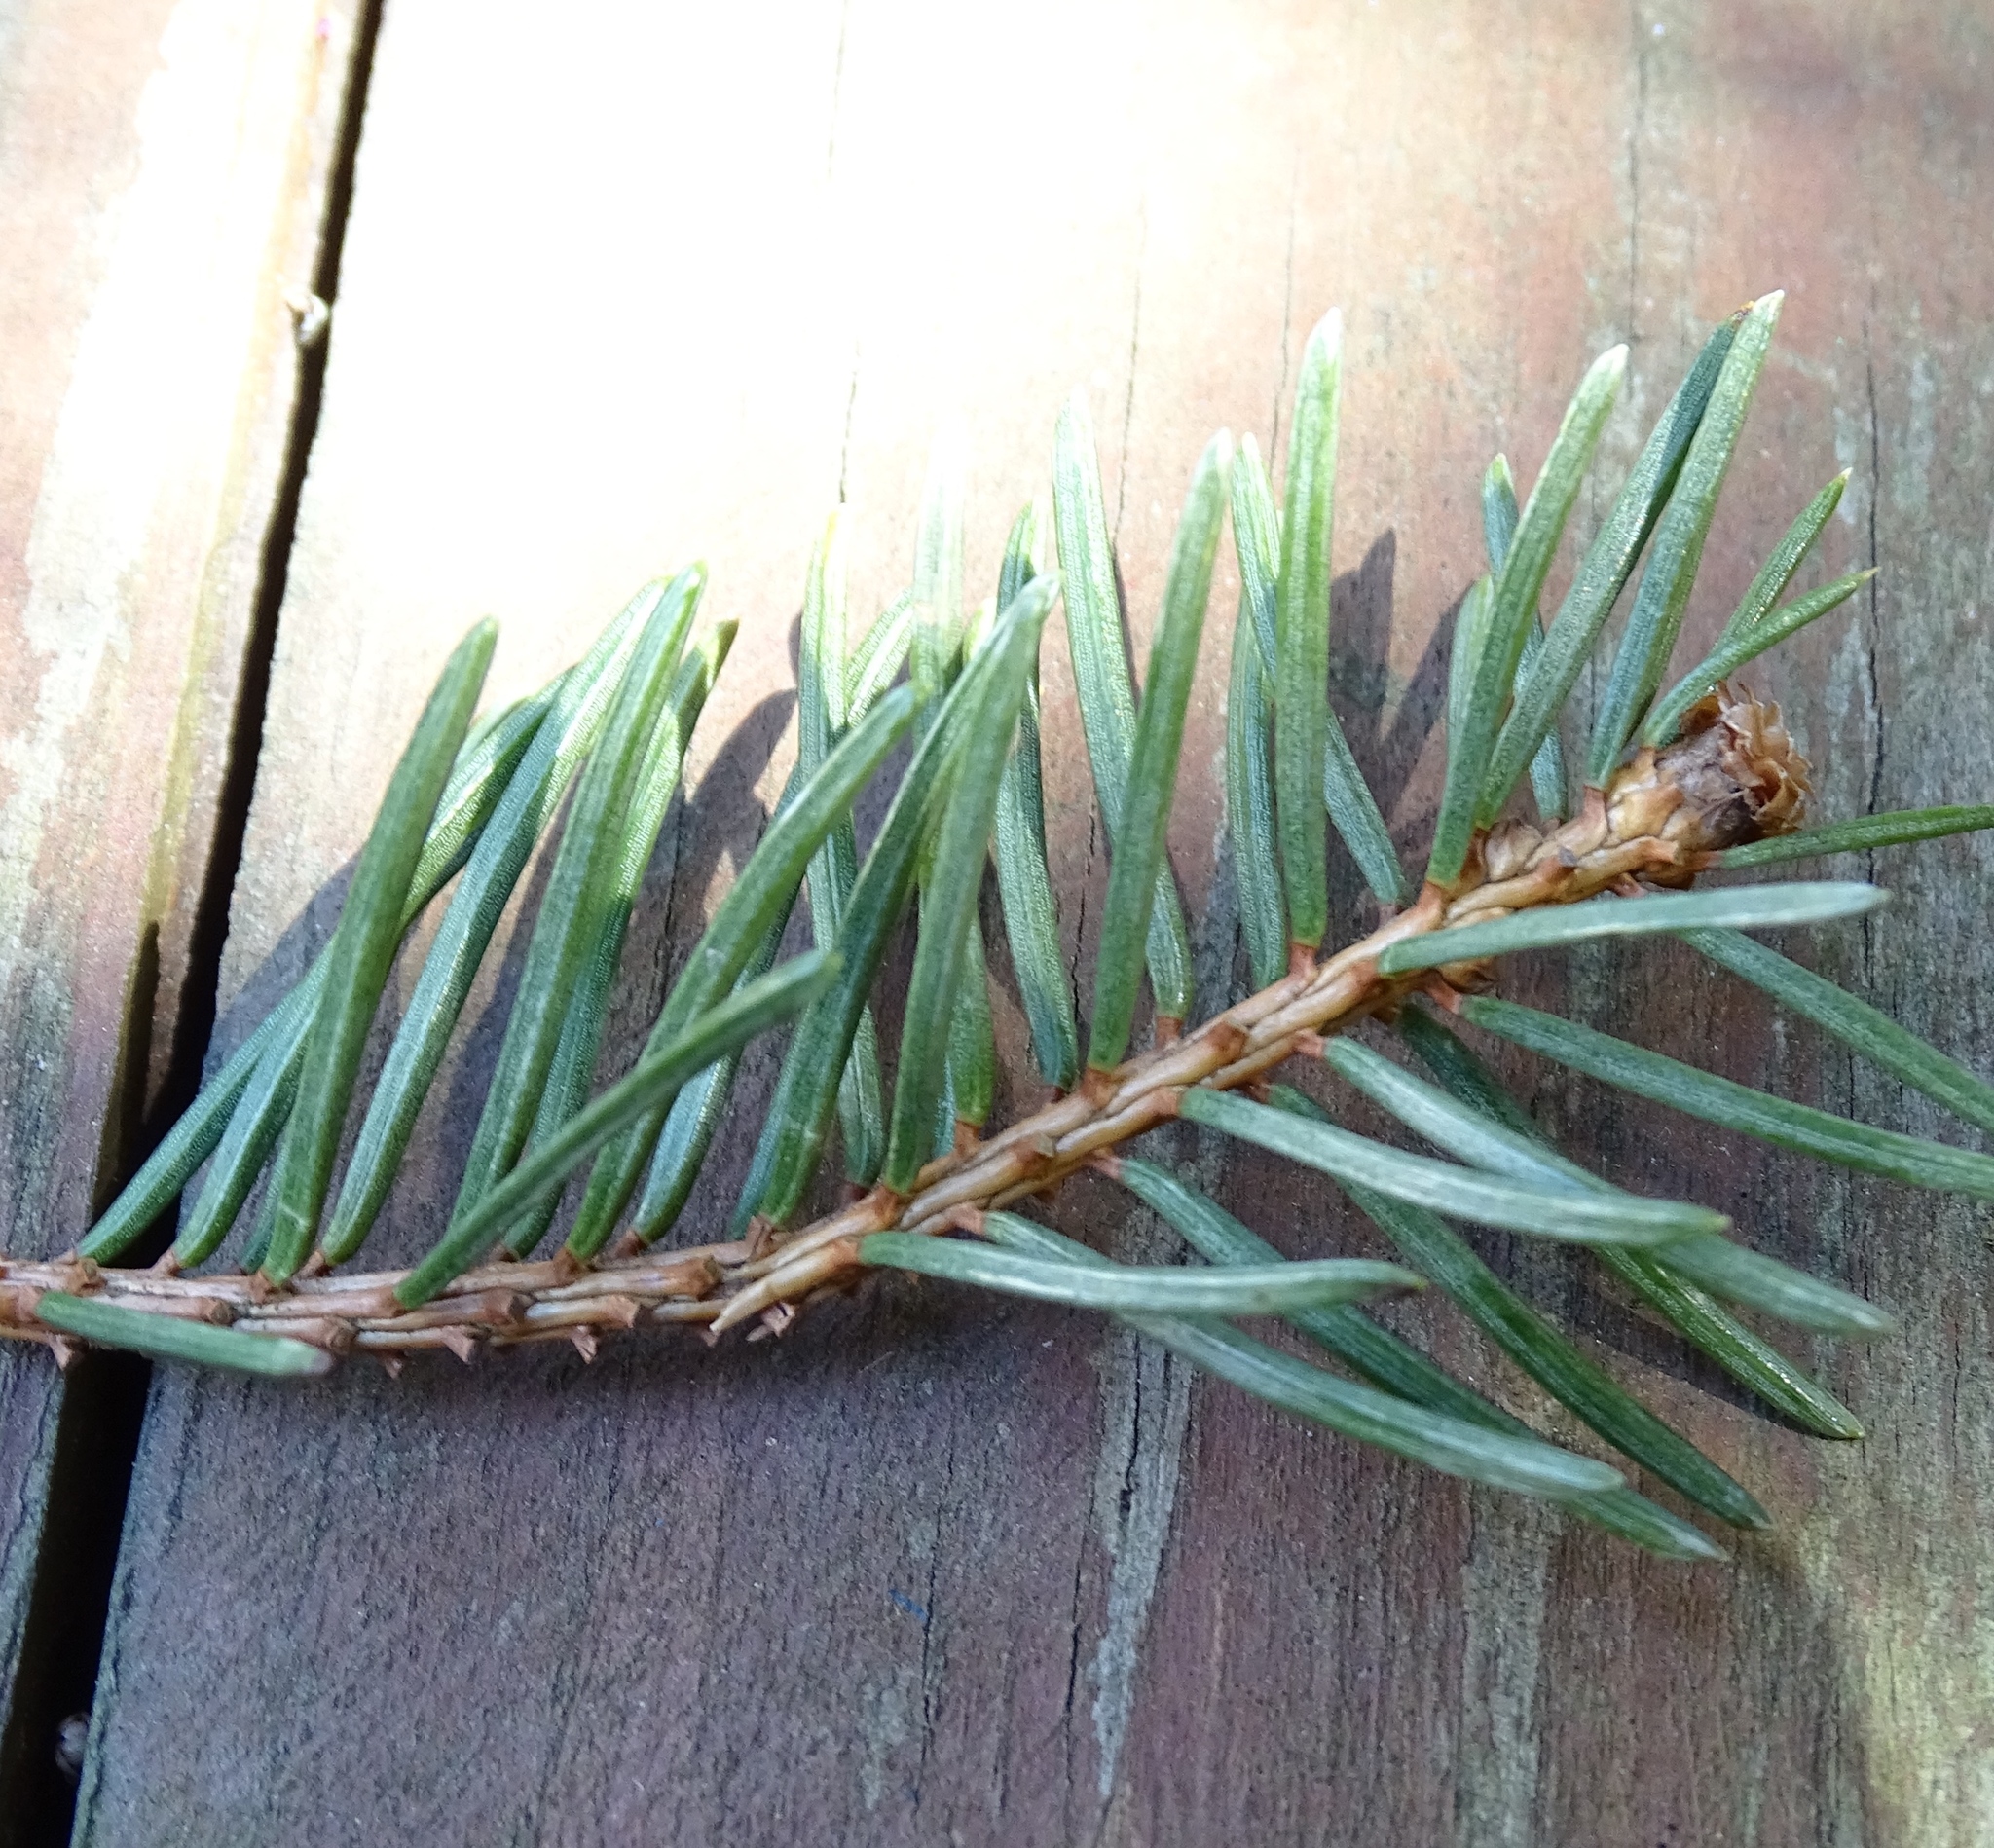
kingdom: Plantae
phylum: Tracheophyta
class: Pinopsida
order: Pinales
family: Pinaceae
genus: Picea
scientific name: Picea abies
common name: Norway spruce
